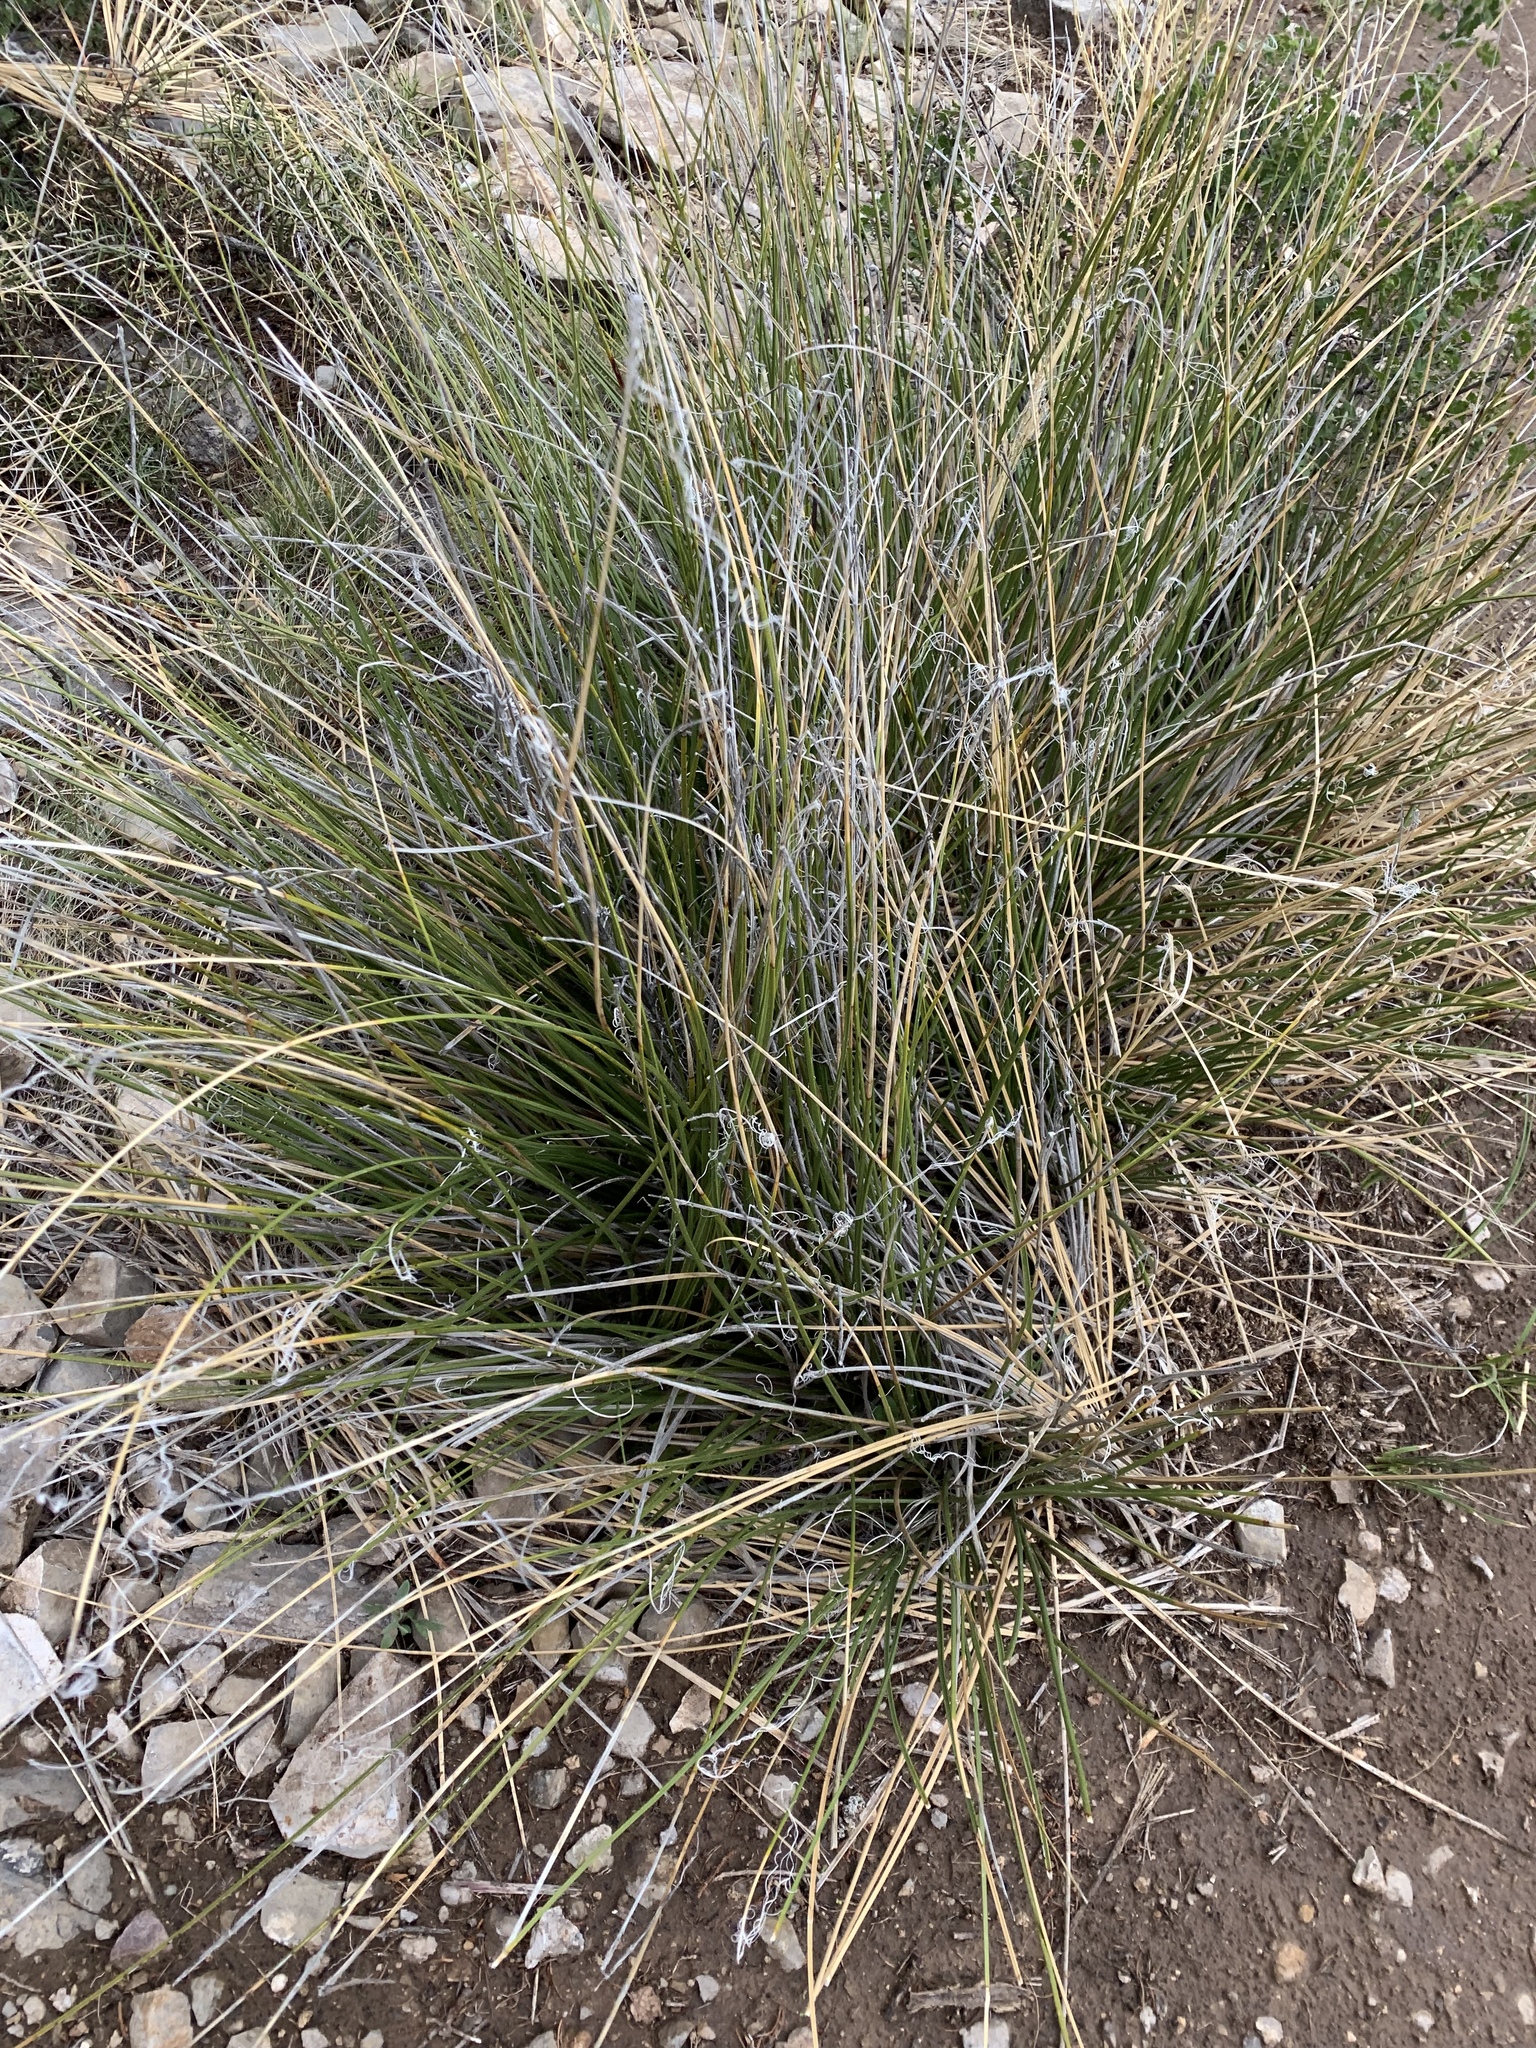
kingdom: Plantae
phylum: Tracheophyta
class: Liliopsida
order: Asparagales
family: Asparagaceae
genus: Nolina
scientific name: Nolina texana
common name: Texas sacahuiste
